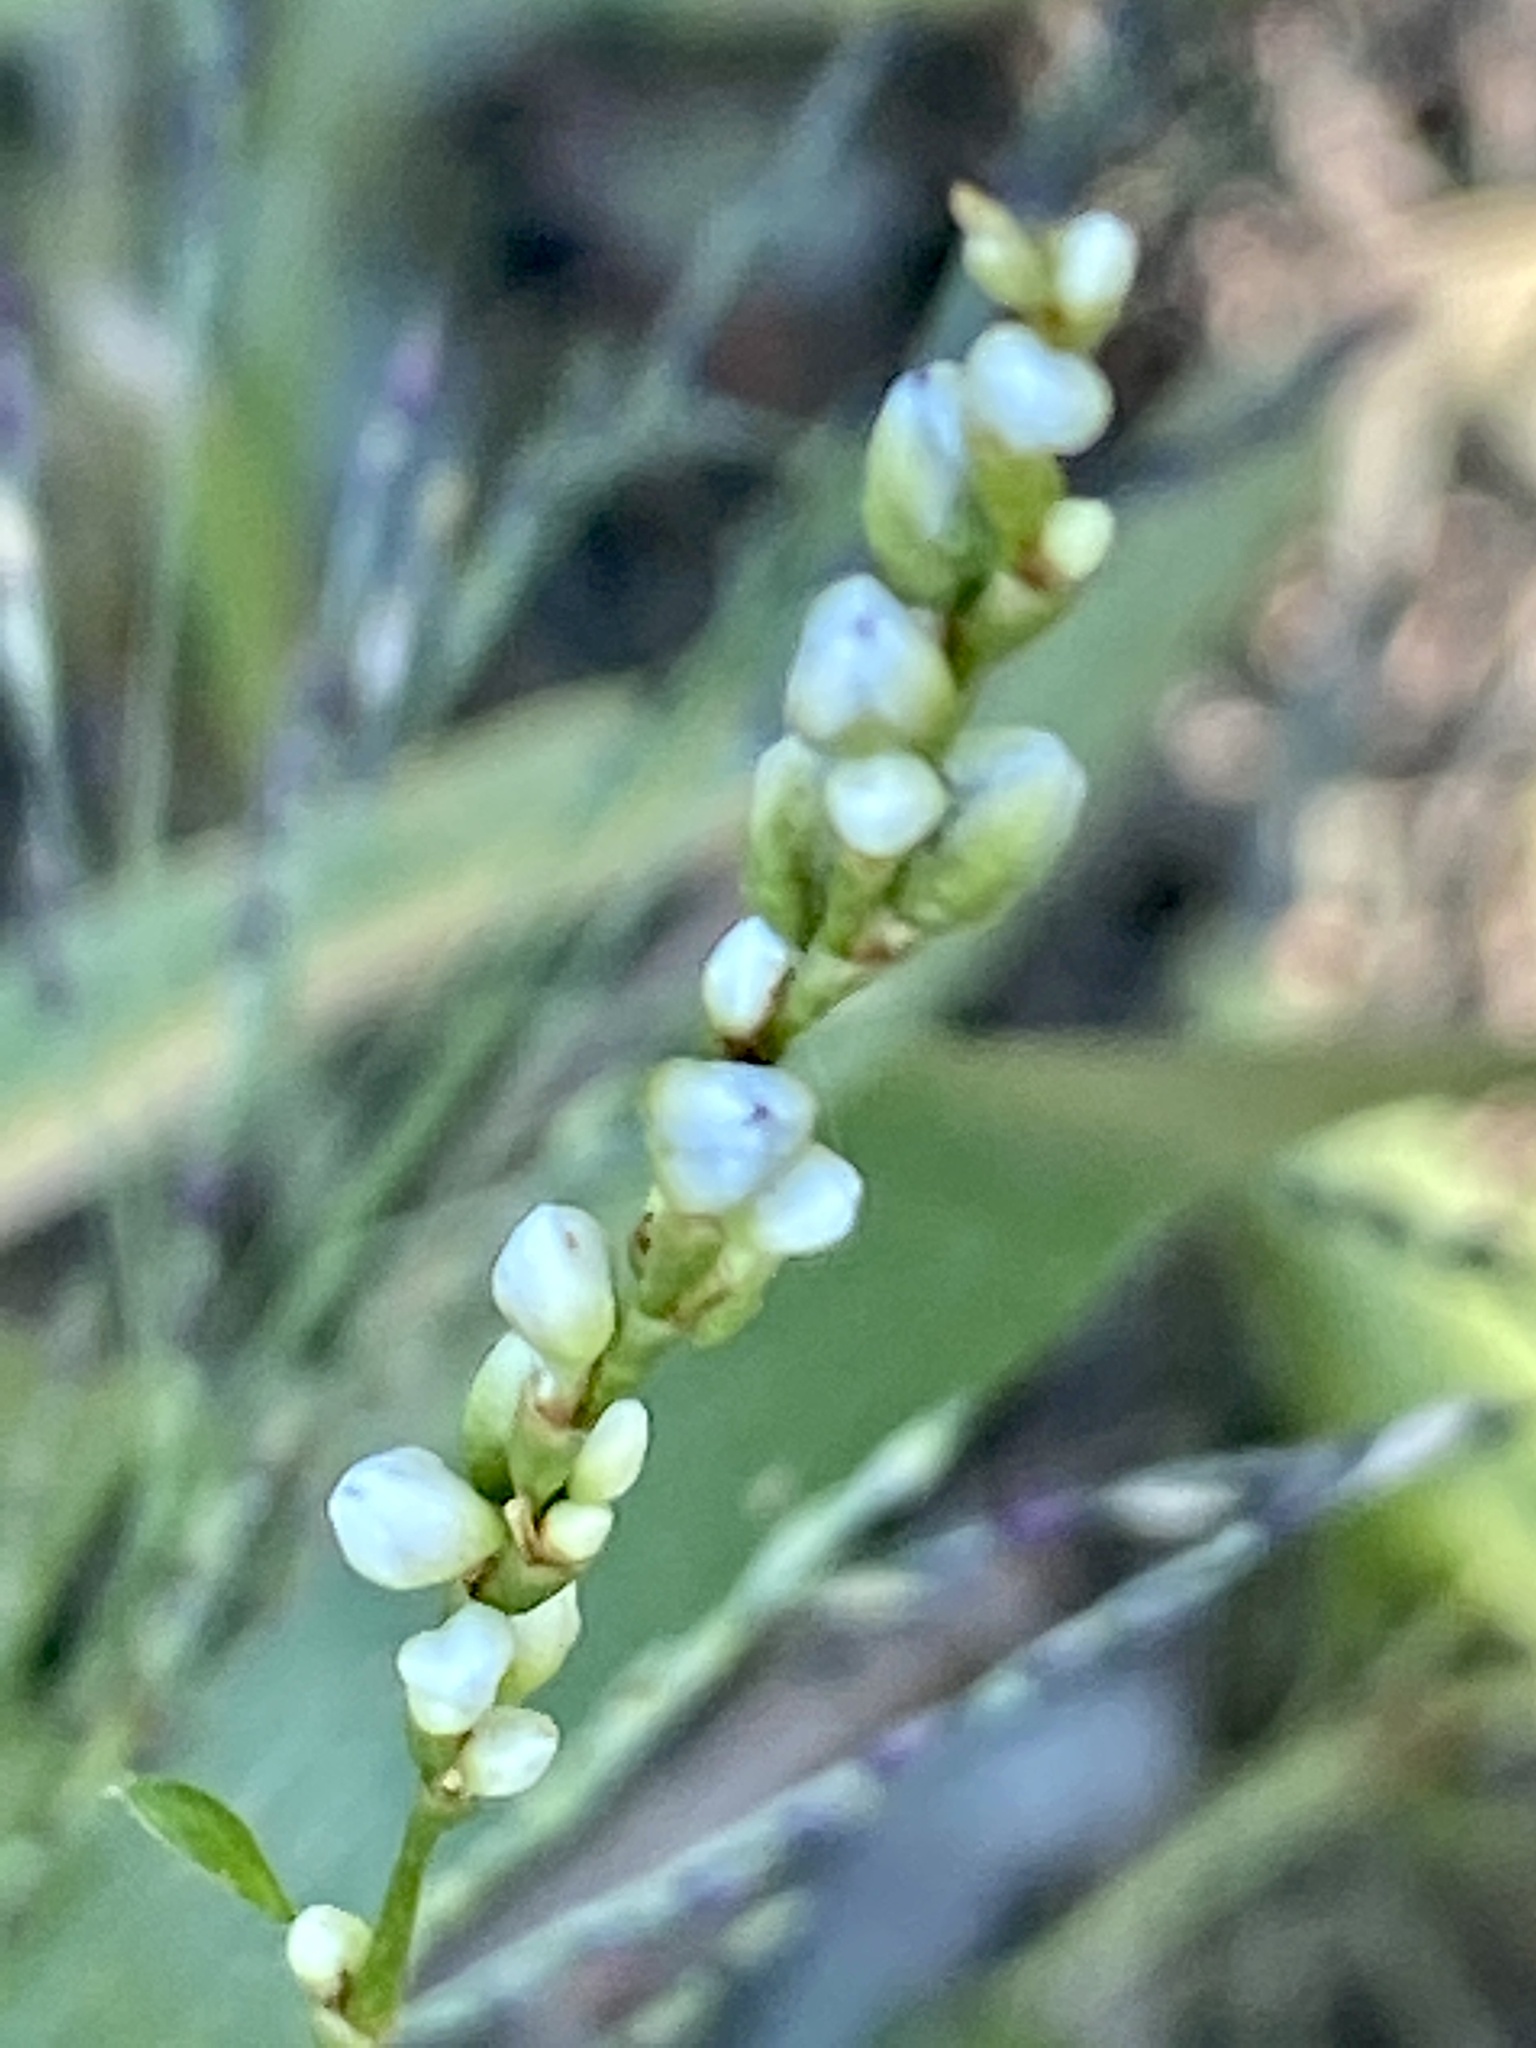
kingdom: Plantae
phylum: Tracheophyta
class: Magnoliopsida
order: Caryophyllales
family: Polygonaceae
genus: Persicaria
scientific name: Persicaria punctata
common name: Dotted smartweed
